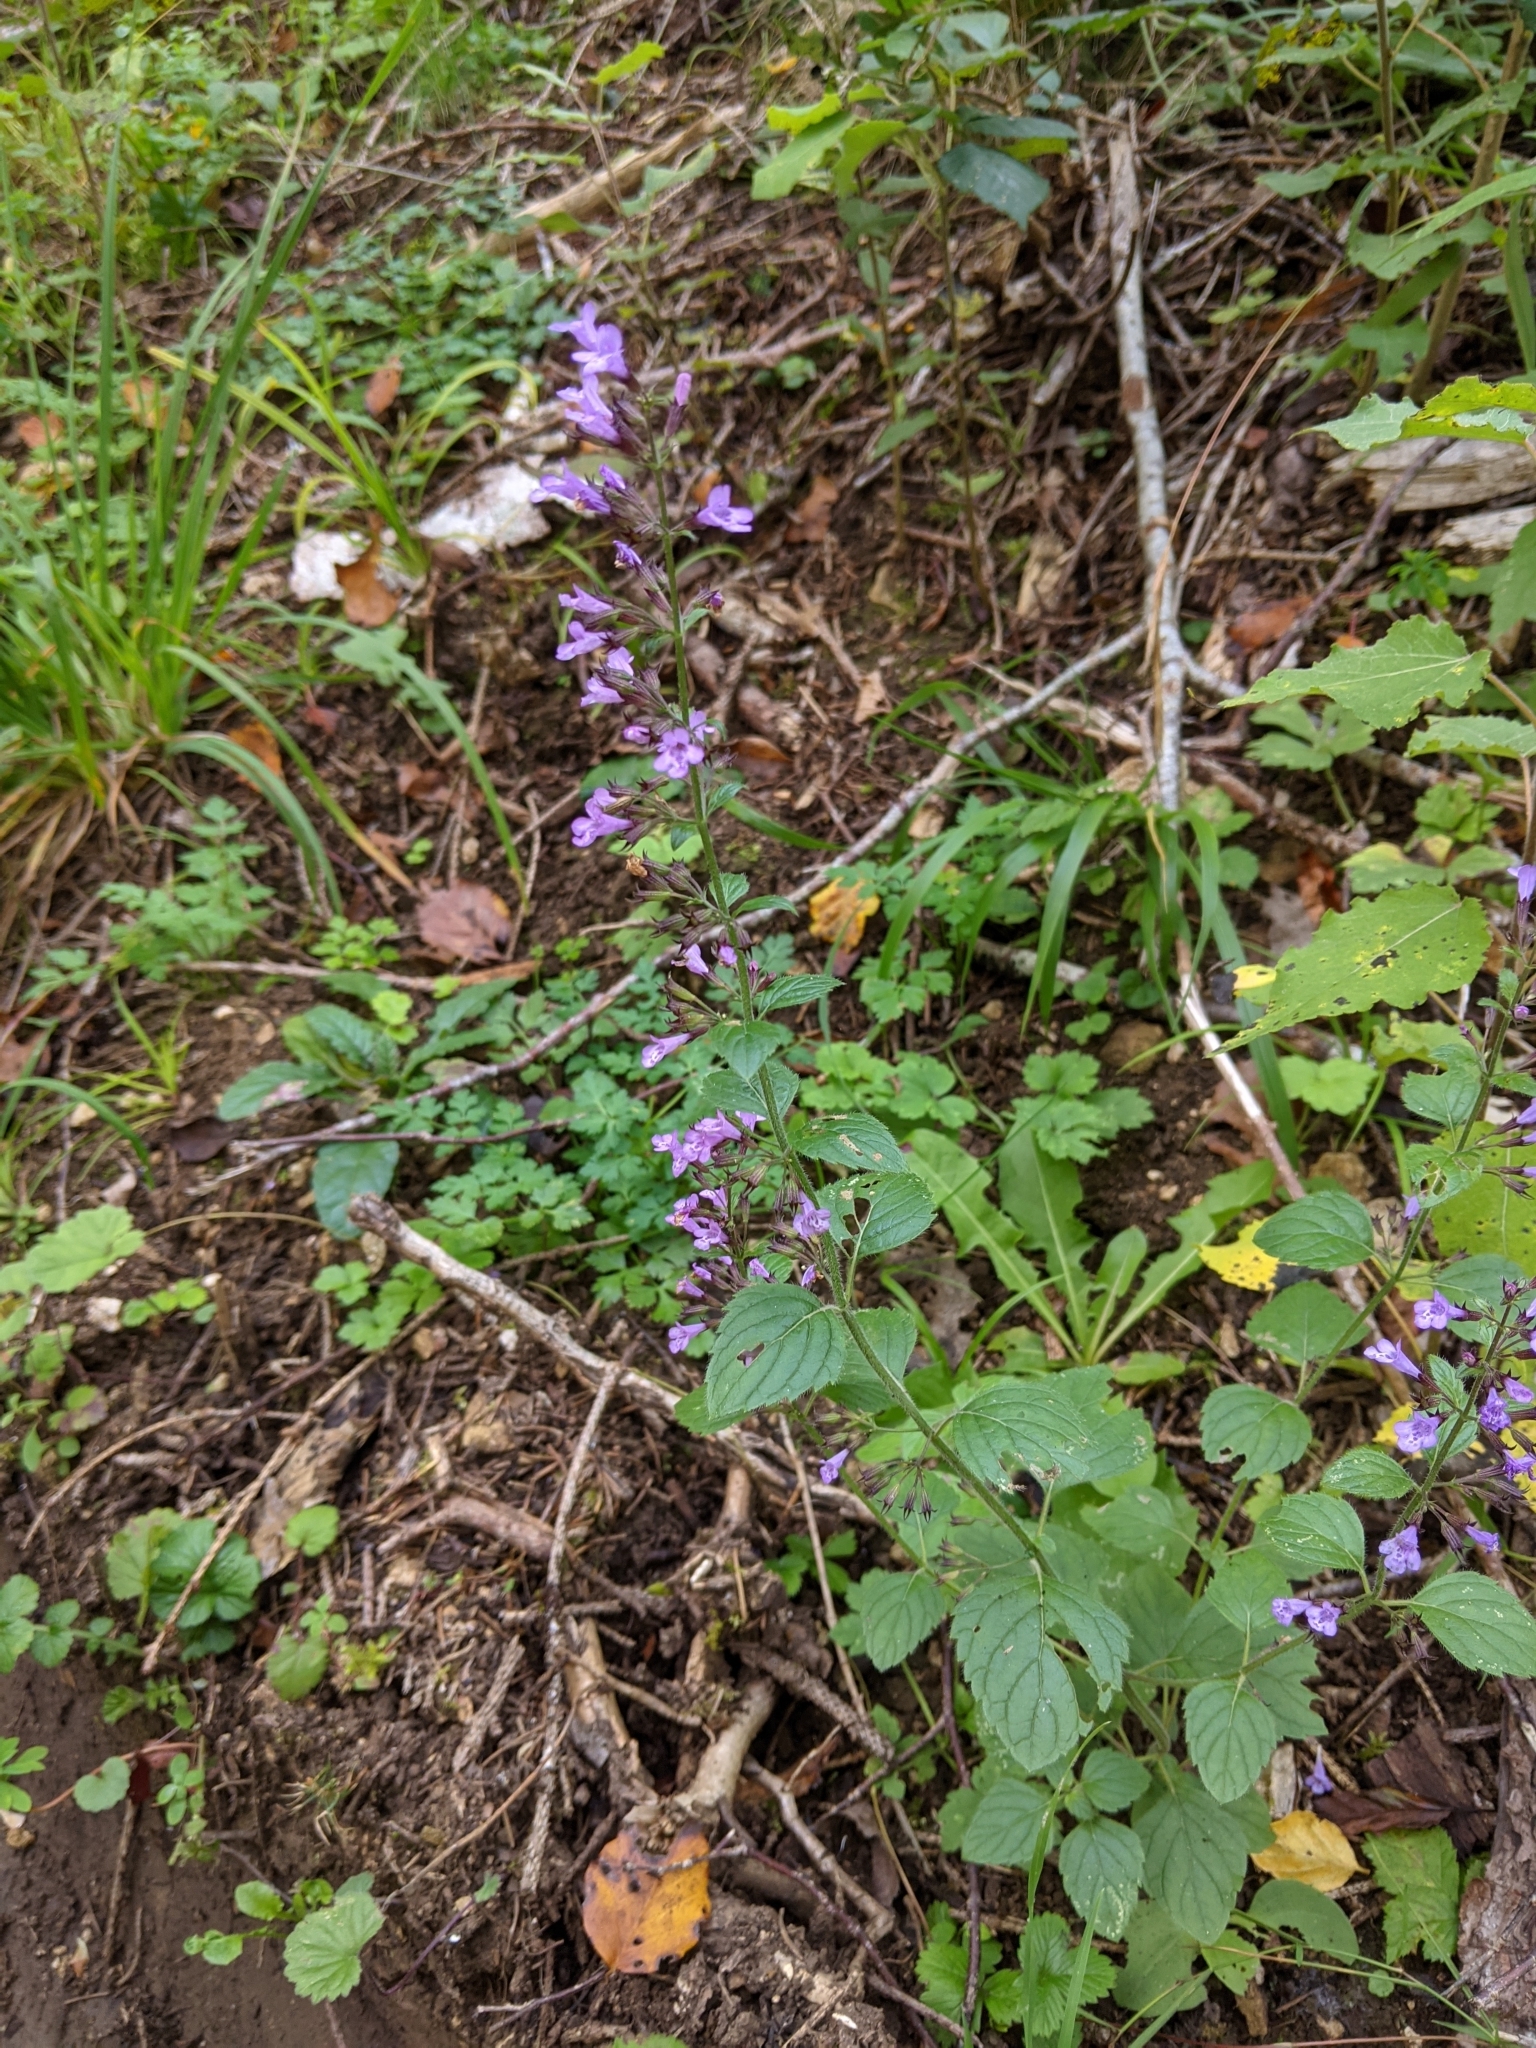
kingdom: Plantae
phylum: Tracheophyta
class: Magnoliopsida
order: Lamiales
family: Lamiaceae
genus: Clinopodium
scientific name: Clinopodium menthifolium
